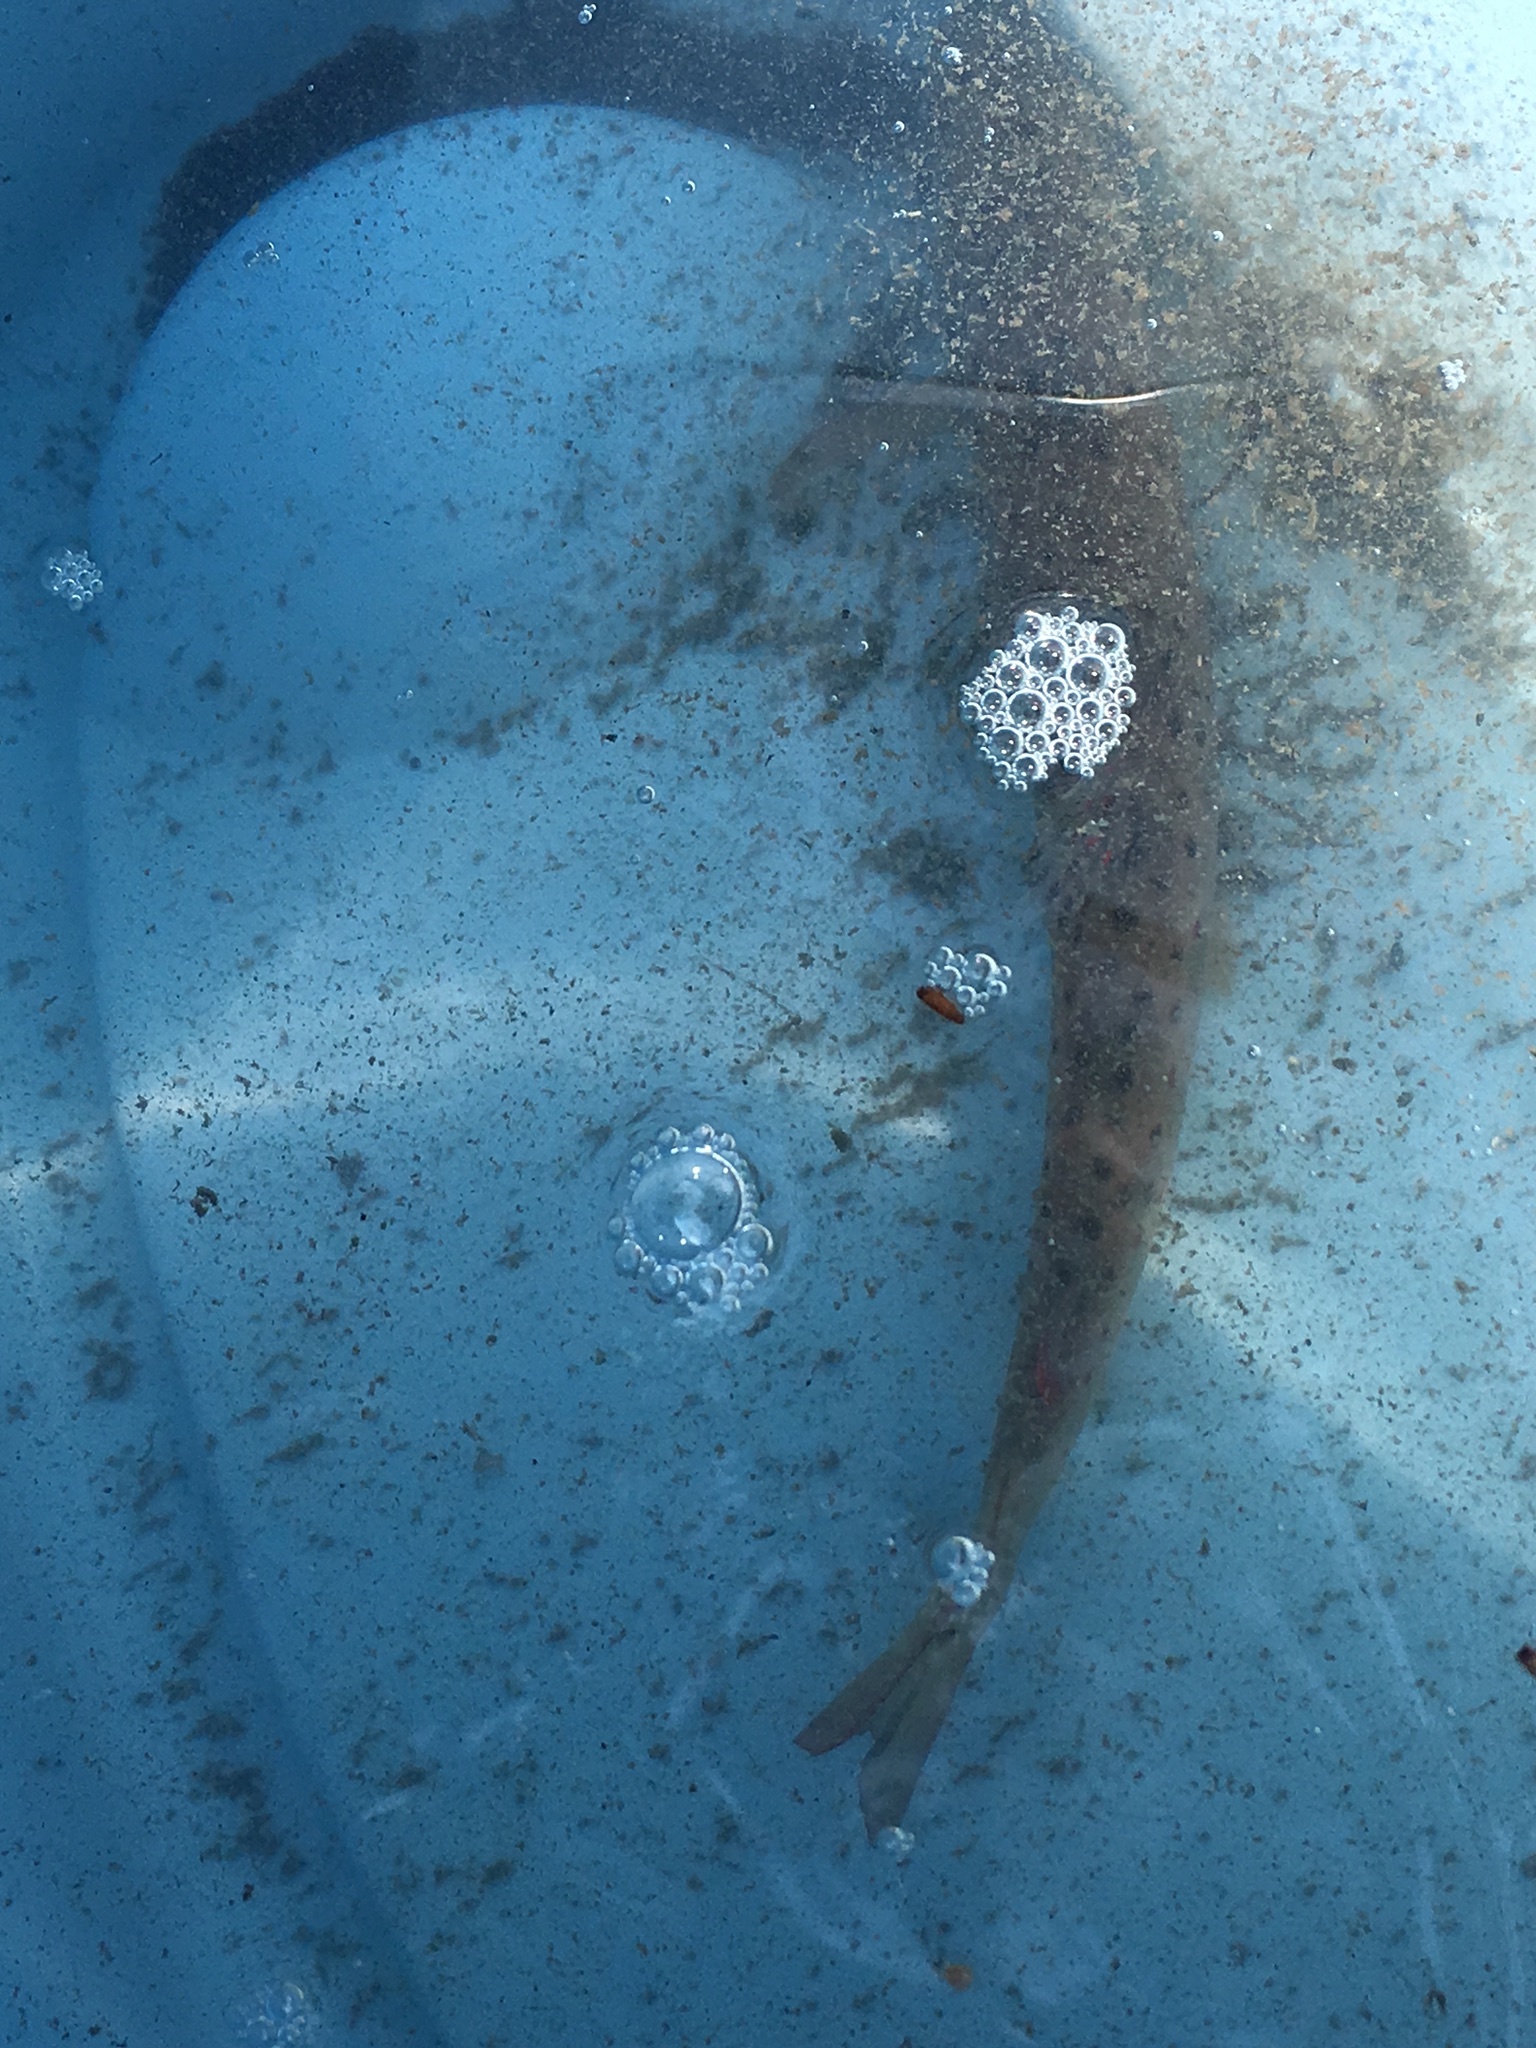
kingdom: Animalia
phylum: Chordata
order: Salmoniformes
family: Salmonidae
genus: Salmo
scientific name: Salmo trutta
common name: Brown trout
